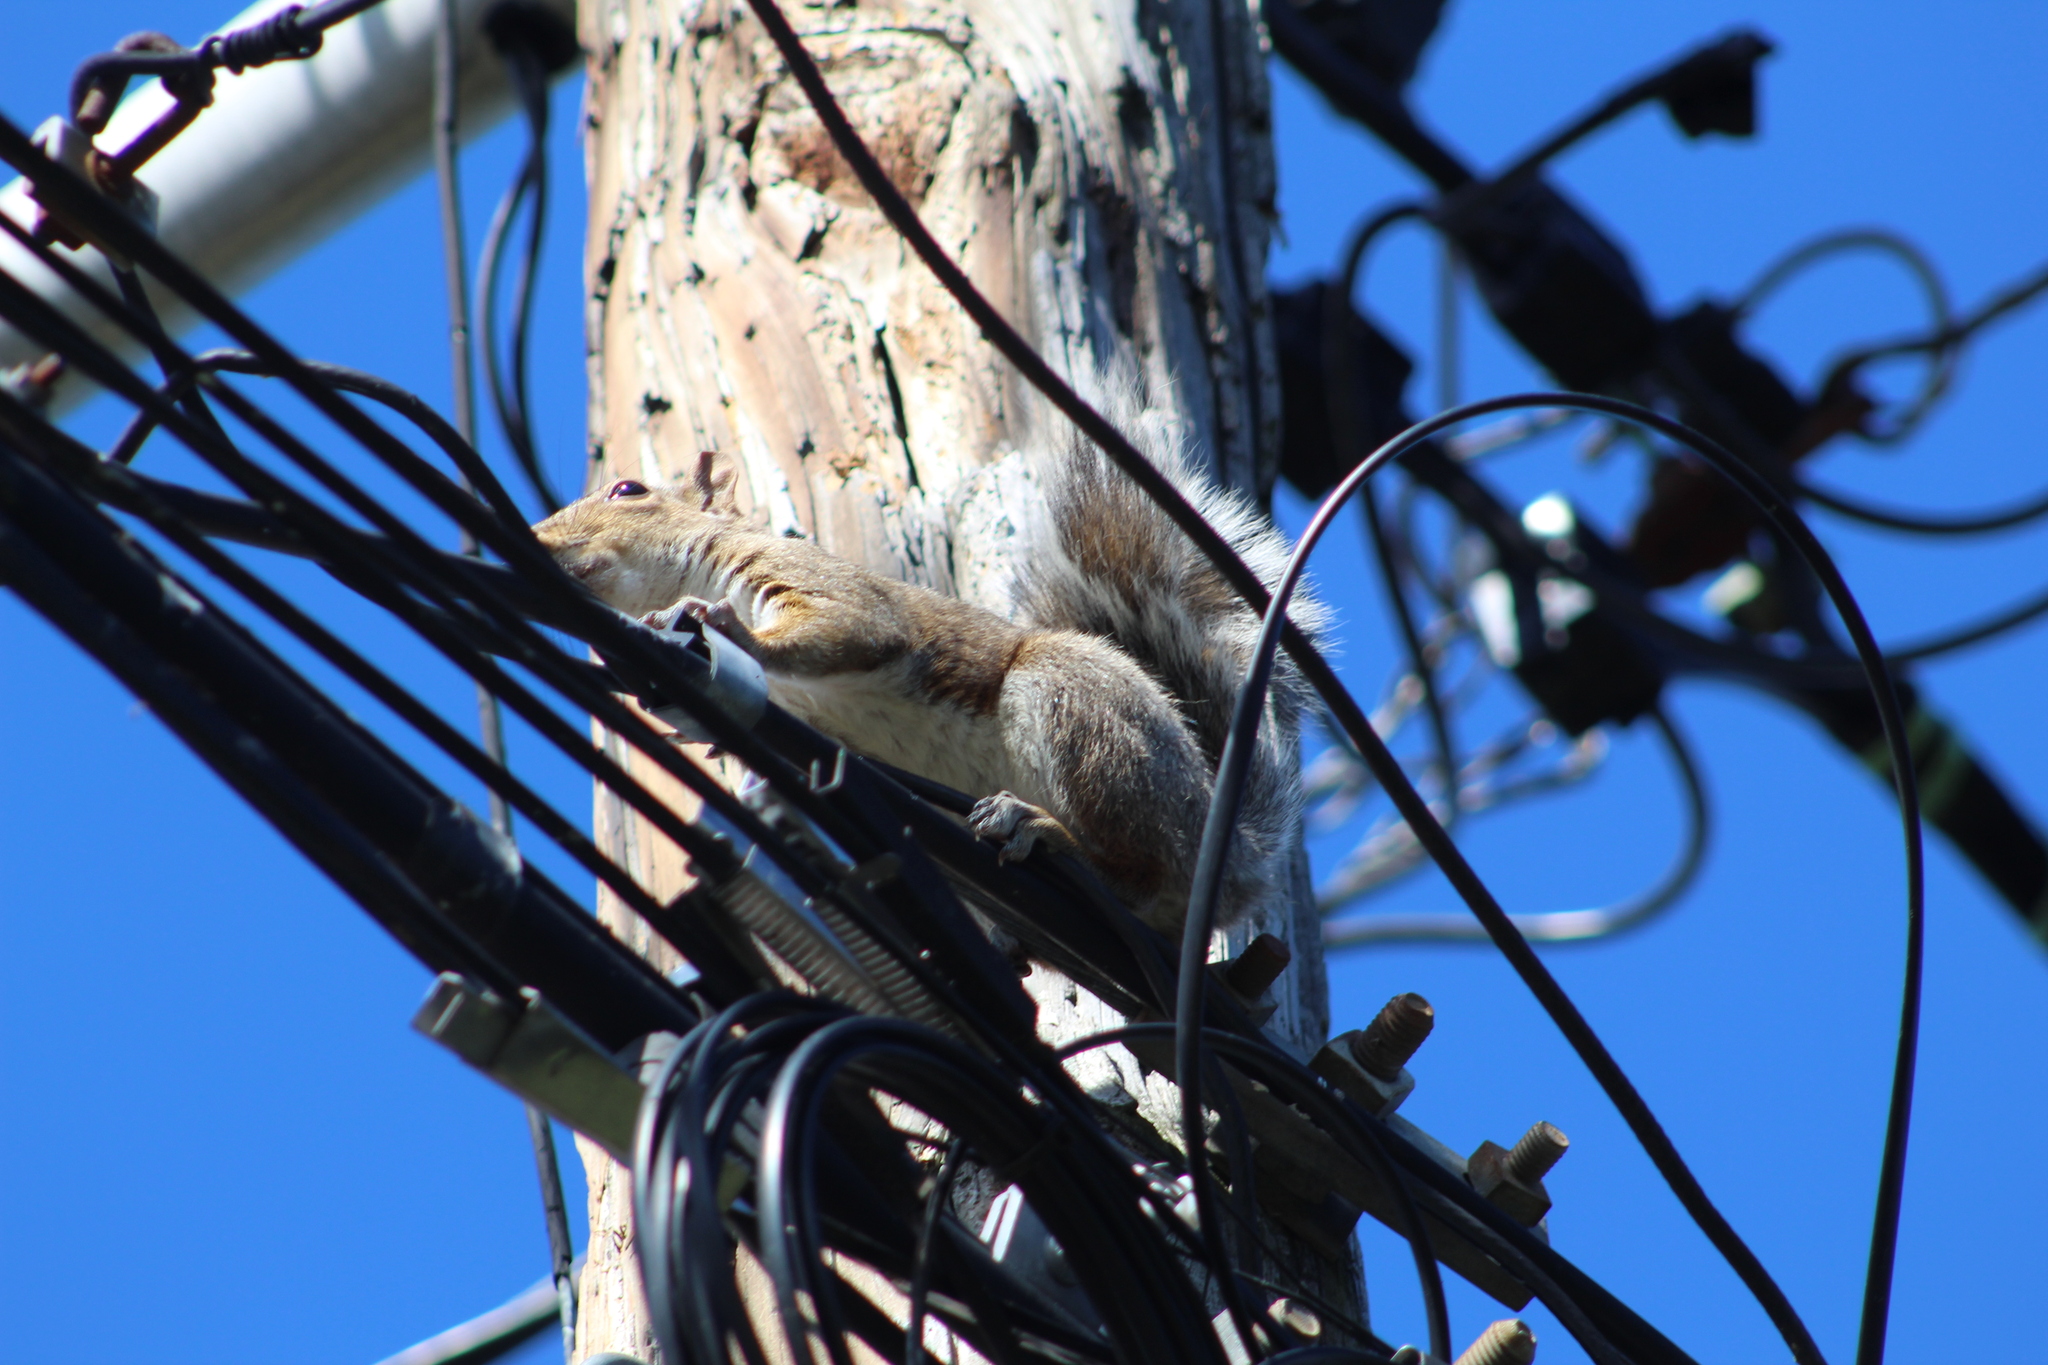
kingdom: Animalia
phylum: Chordata
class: Mammalia
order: Rodentia
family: Sciuridae
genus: Sciurus
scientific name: Sciurus carolinensis
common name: Eastern gray squirrel
